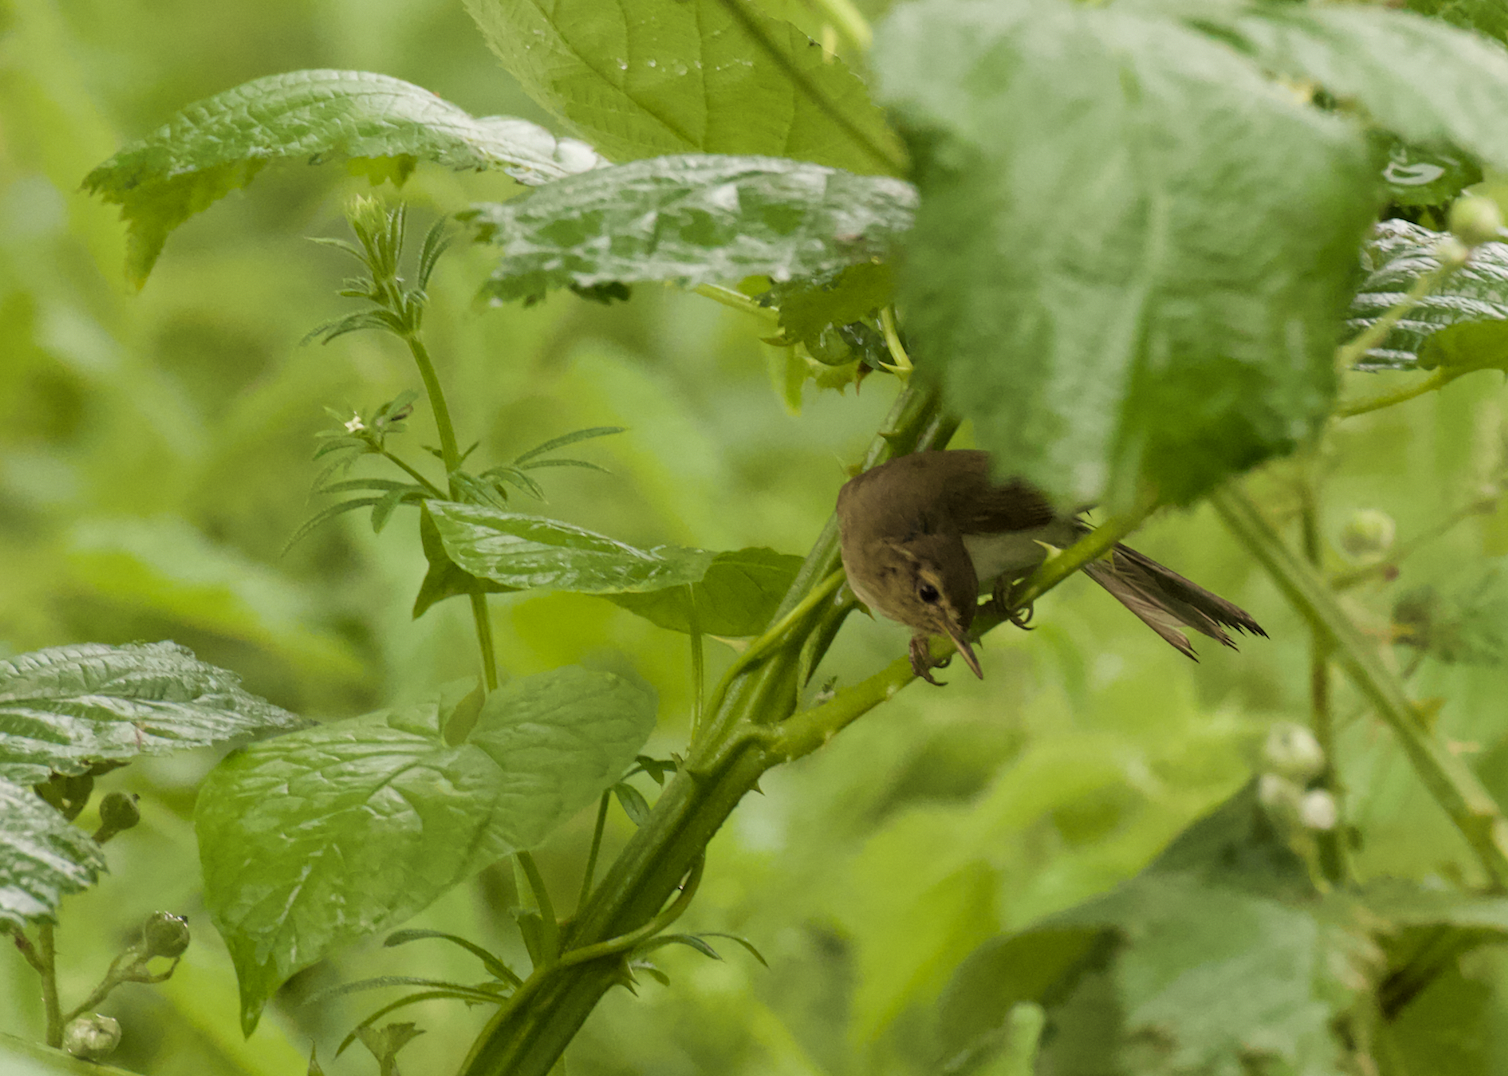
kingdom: Animalia
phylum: Chordata
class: Aves
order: Passeriformes
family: Phylloscopidae
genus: Phylloscopus
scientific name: Phylloscopus collybita
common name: Common chiffchaff
